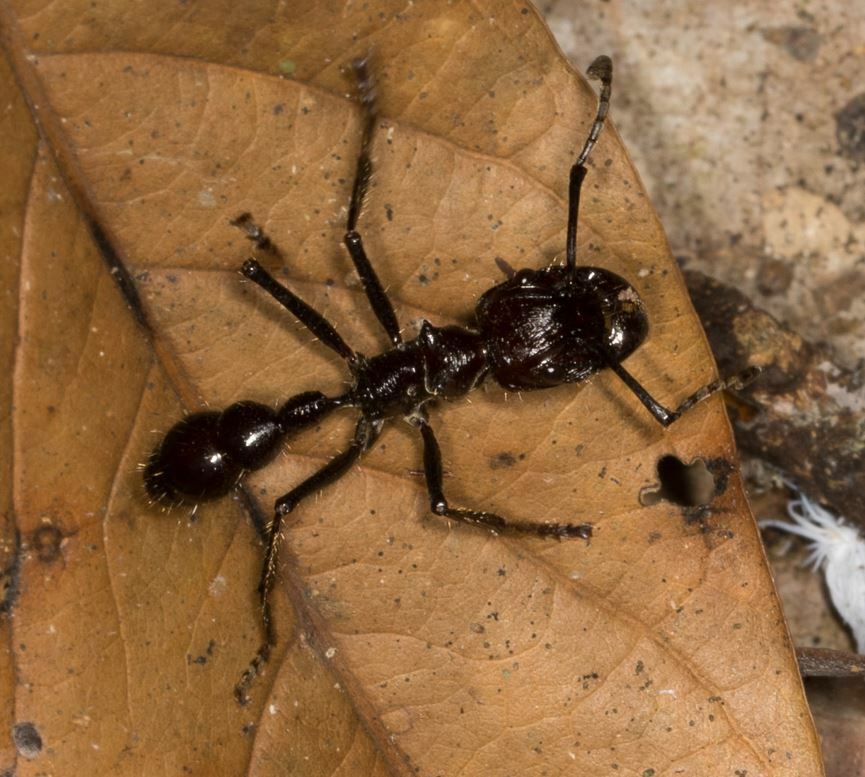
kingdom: Animalia
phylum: Arthropoda
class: Insecta
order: Hymenoptera
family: Formicidae
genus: Paraponera
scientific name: Paraponera clavata
